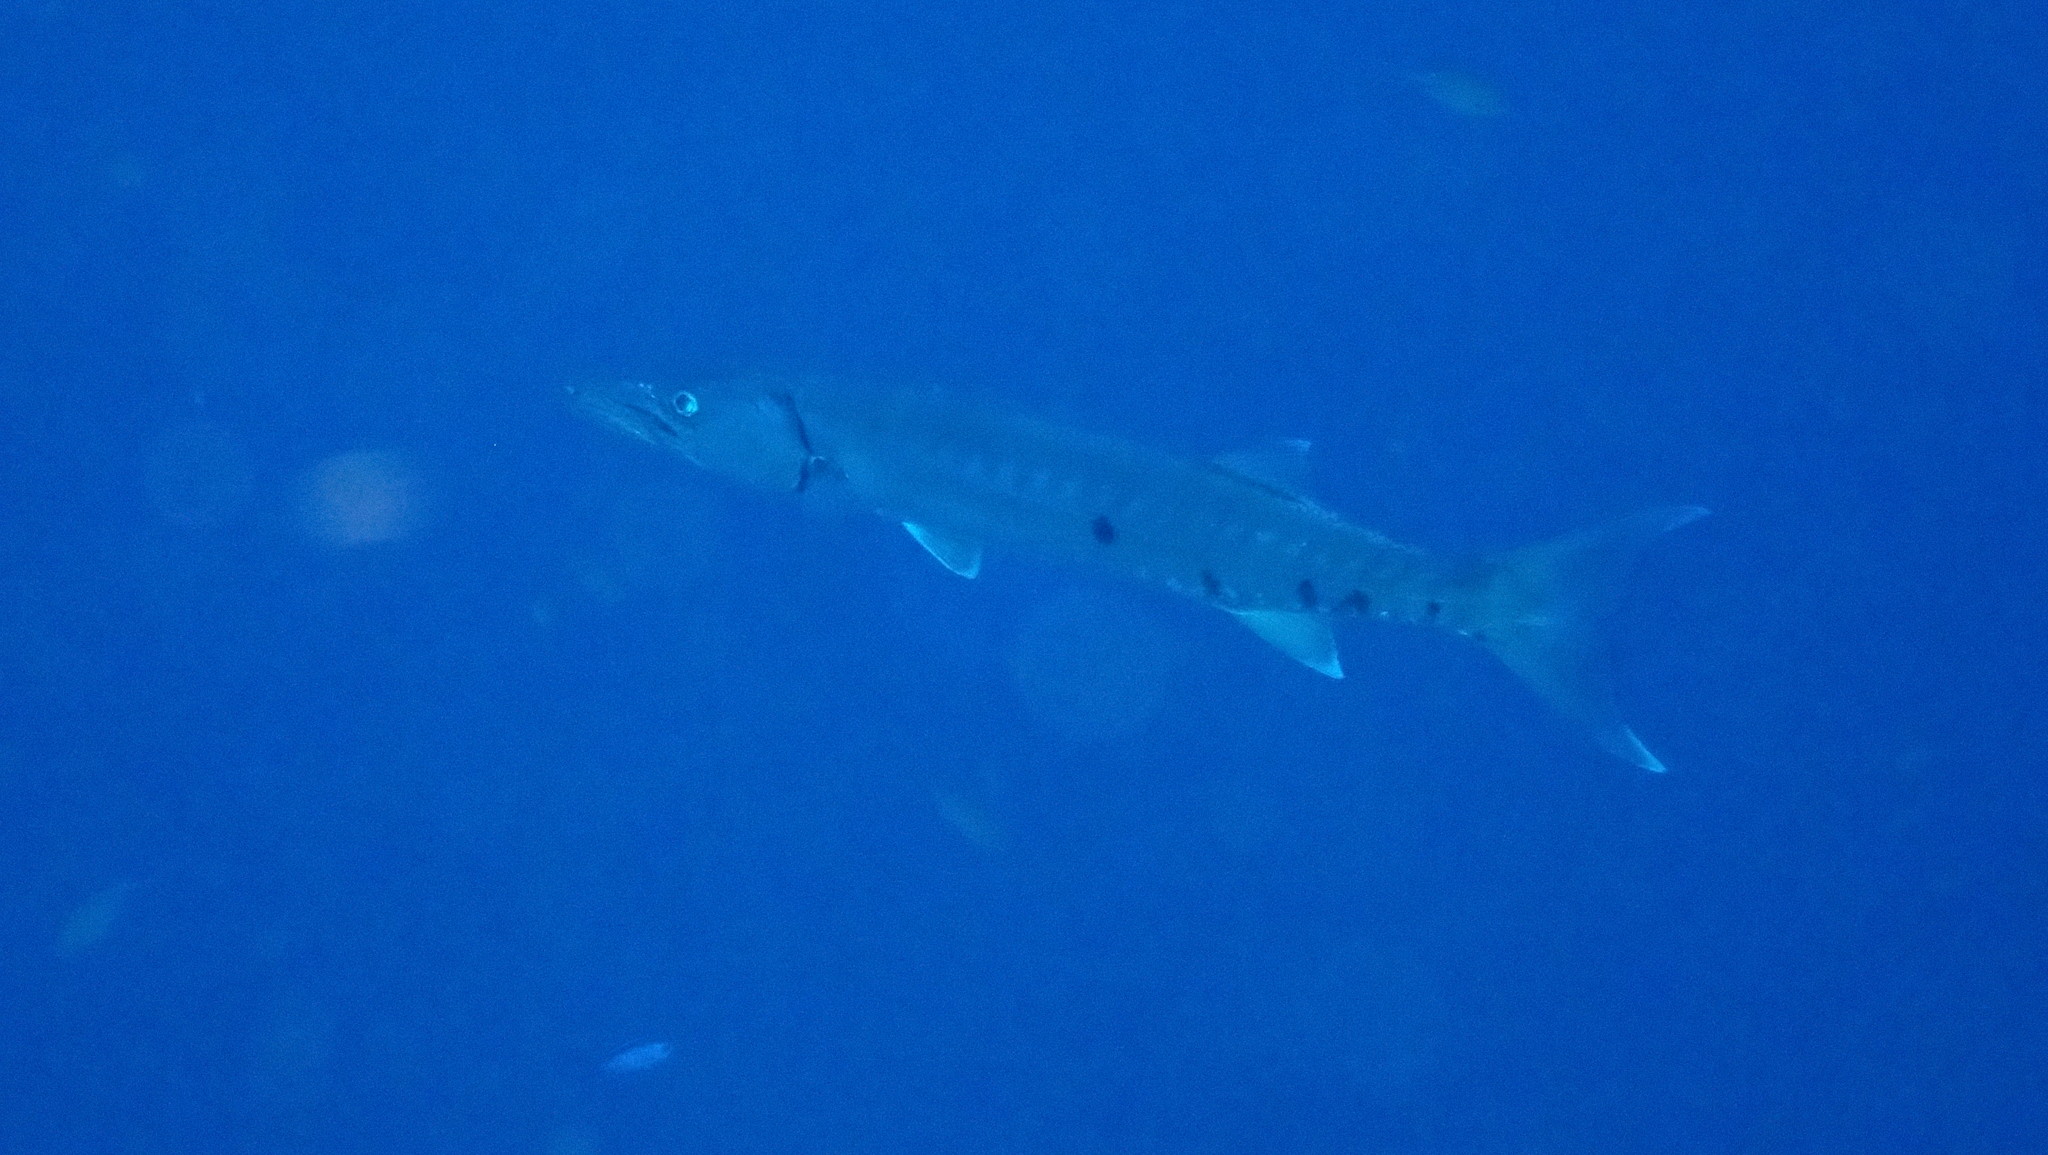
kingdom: Animalia
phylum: Chordata
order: Perciformes
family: Sphyraenidae
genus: Sphyraena
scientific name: Sphyraena barracuda
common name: Great barracuda
